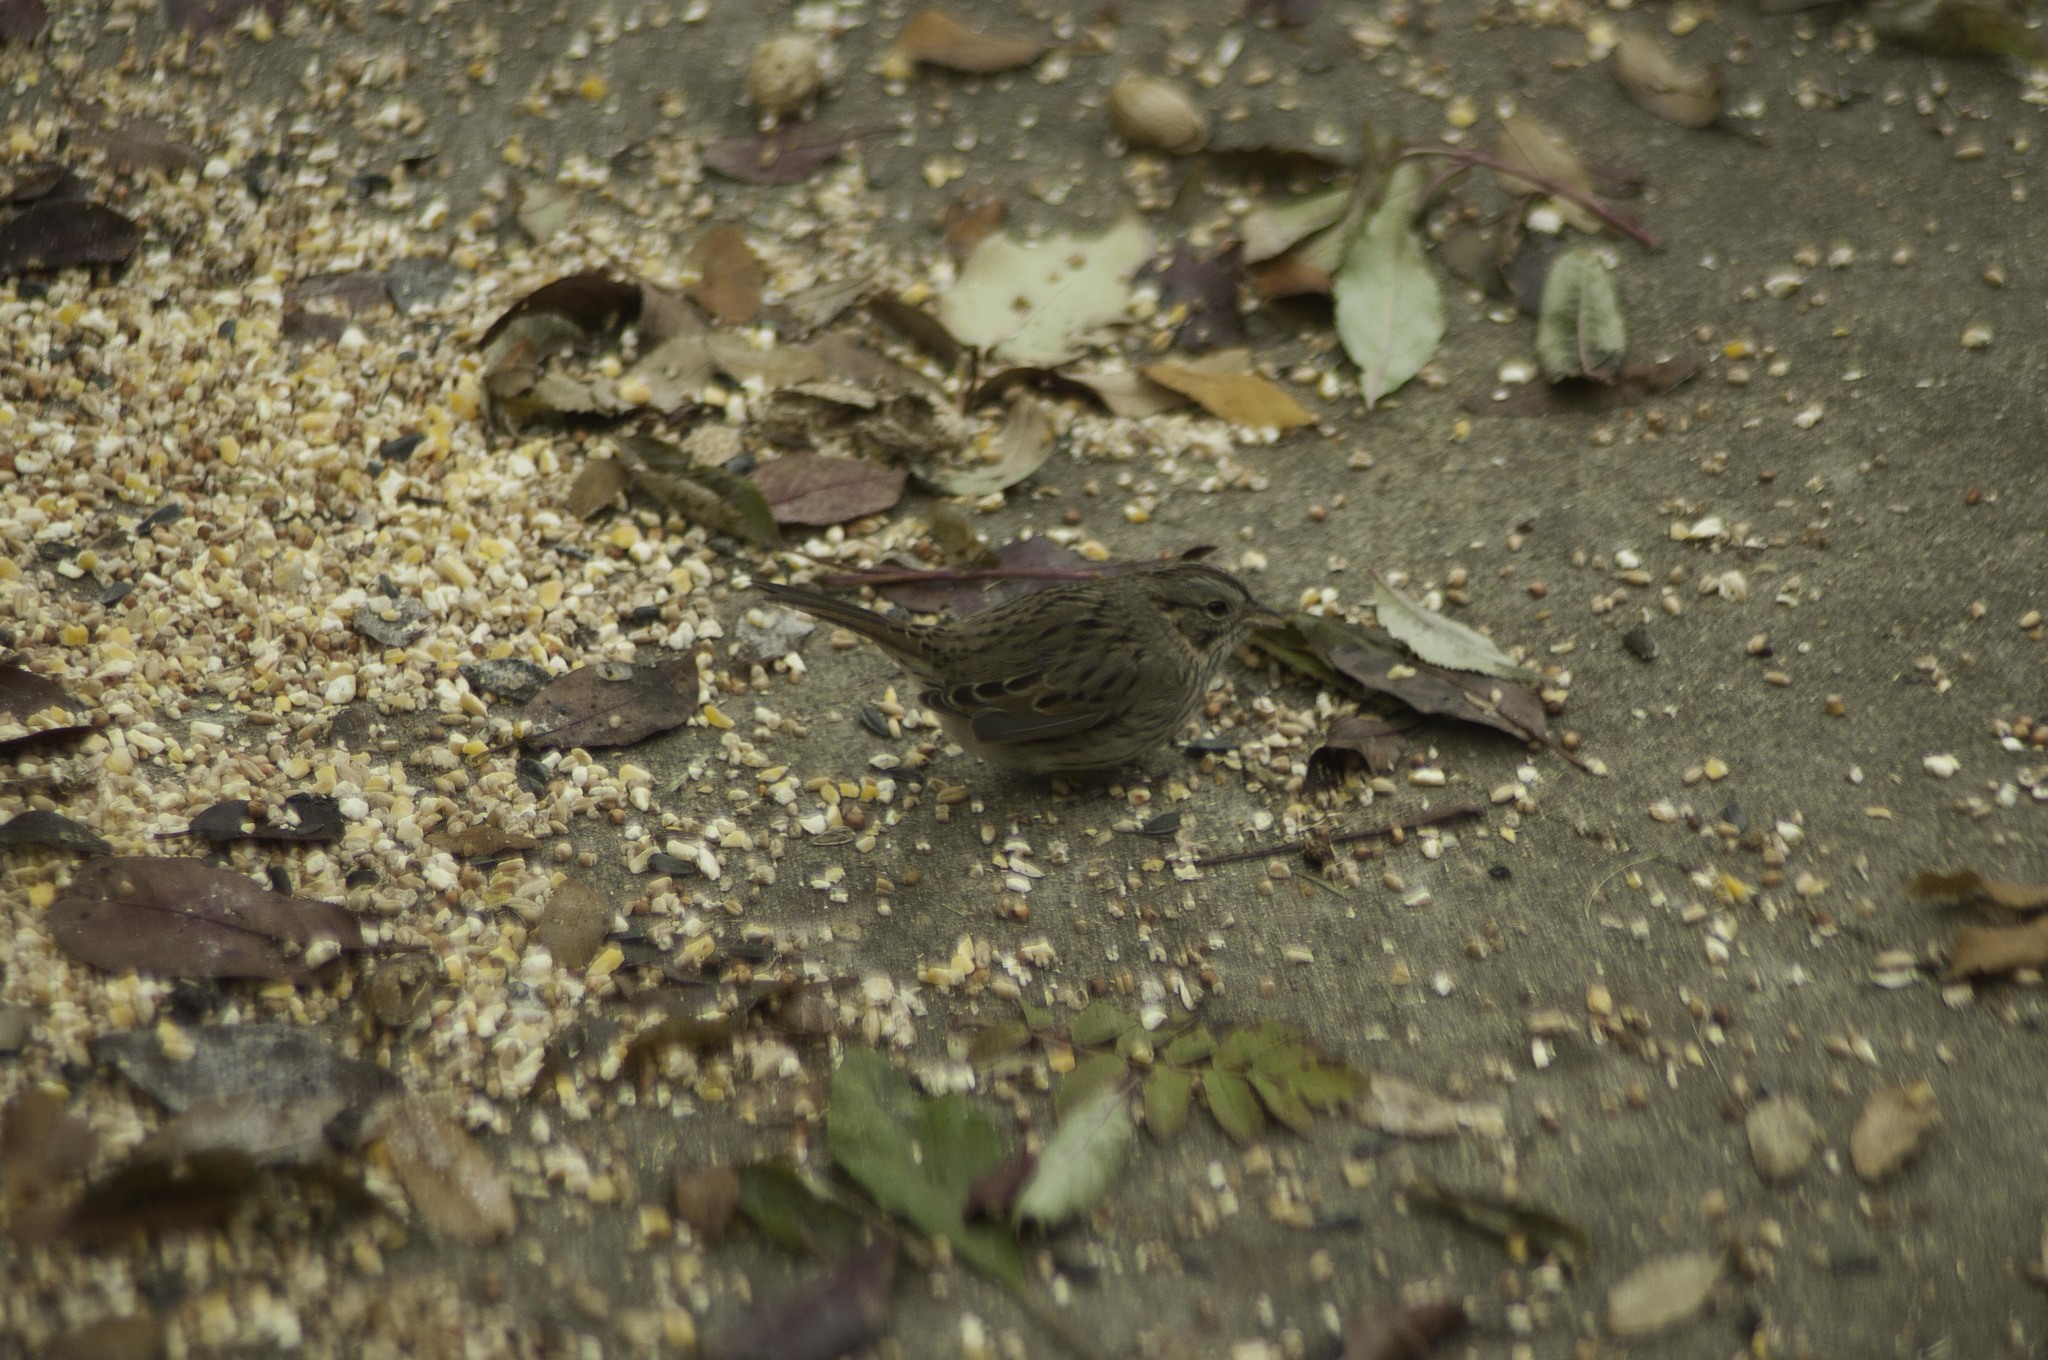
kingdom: Animalia
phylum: Chordata
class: Aves
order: Passeriformes
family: Passerellidae
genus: Melospiza
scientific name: Melospiza lincolnii
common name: Lincoln's sparrow
